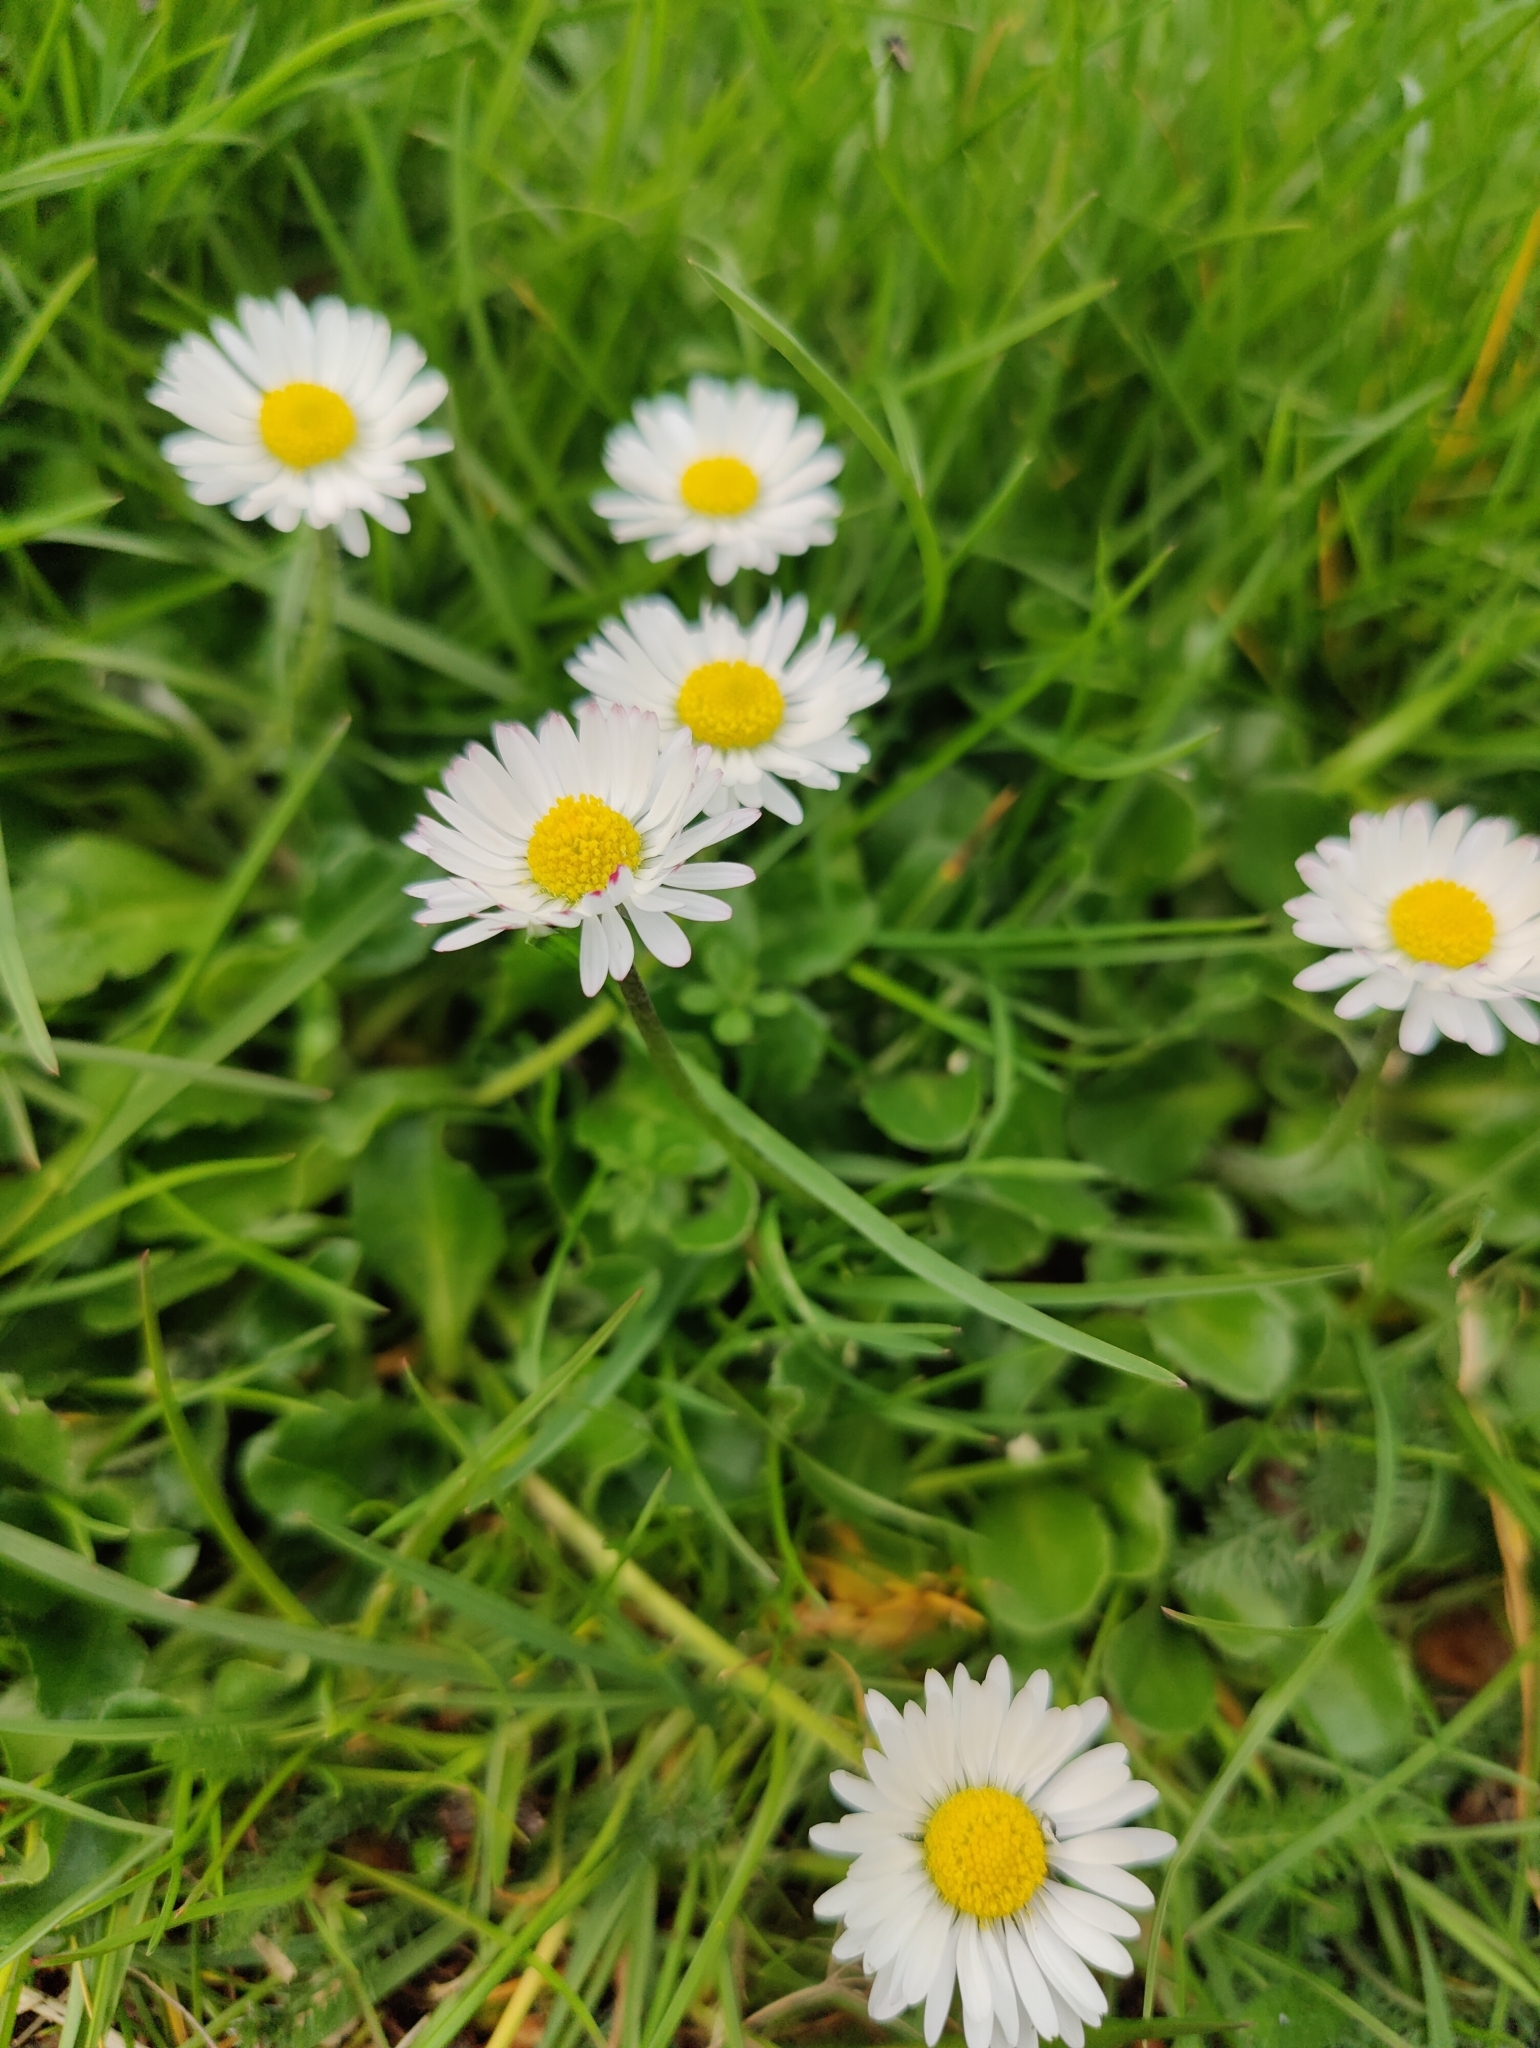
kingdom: Plantae
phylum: Tracheophyta
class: Magnoliopsida
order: Asterales
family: Asteraceae
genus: Bellis
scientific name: Bellis perennis
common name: Lawndaisy
